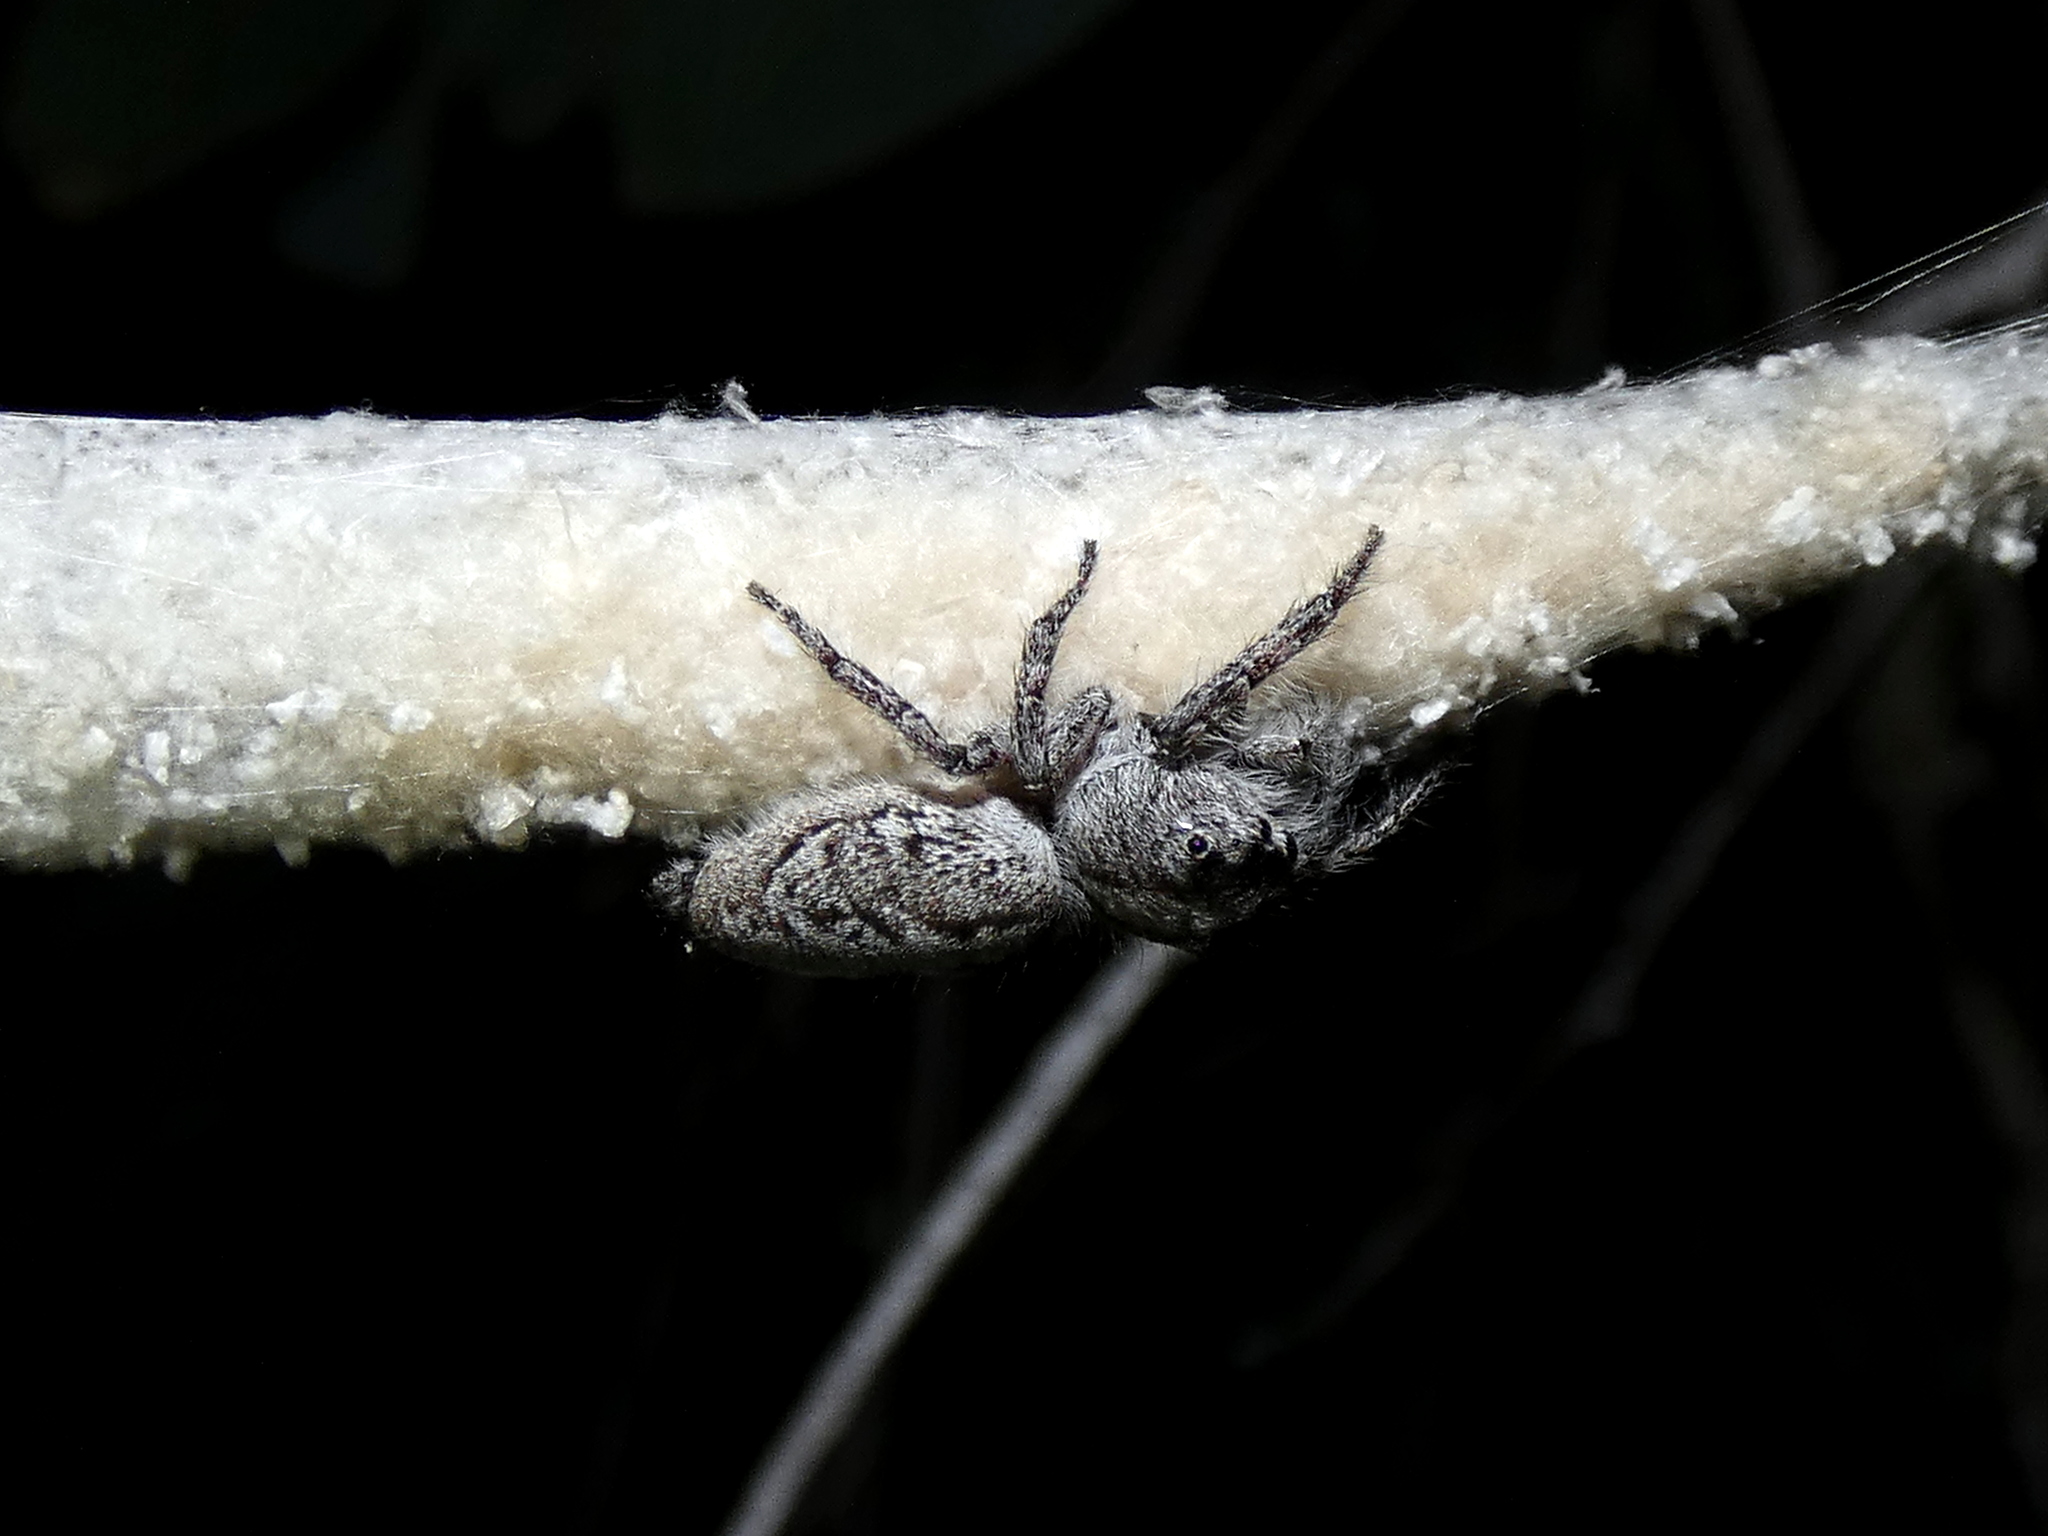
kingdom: Animalia
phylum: Arthropoda
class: Arachnida
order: Araneae
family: Salticidae
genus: Cytaea
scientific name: Cytaea aspera
